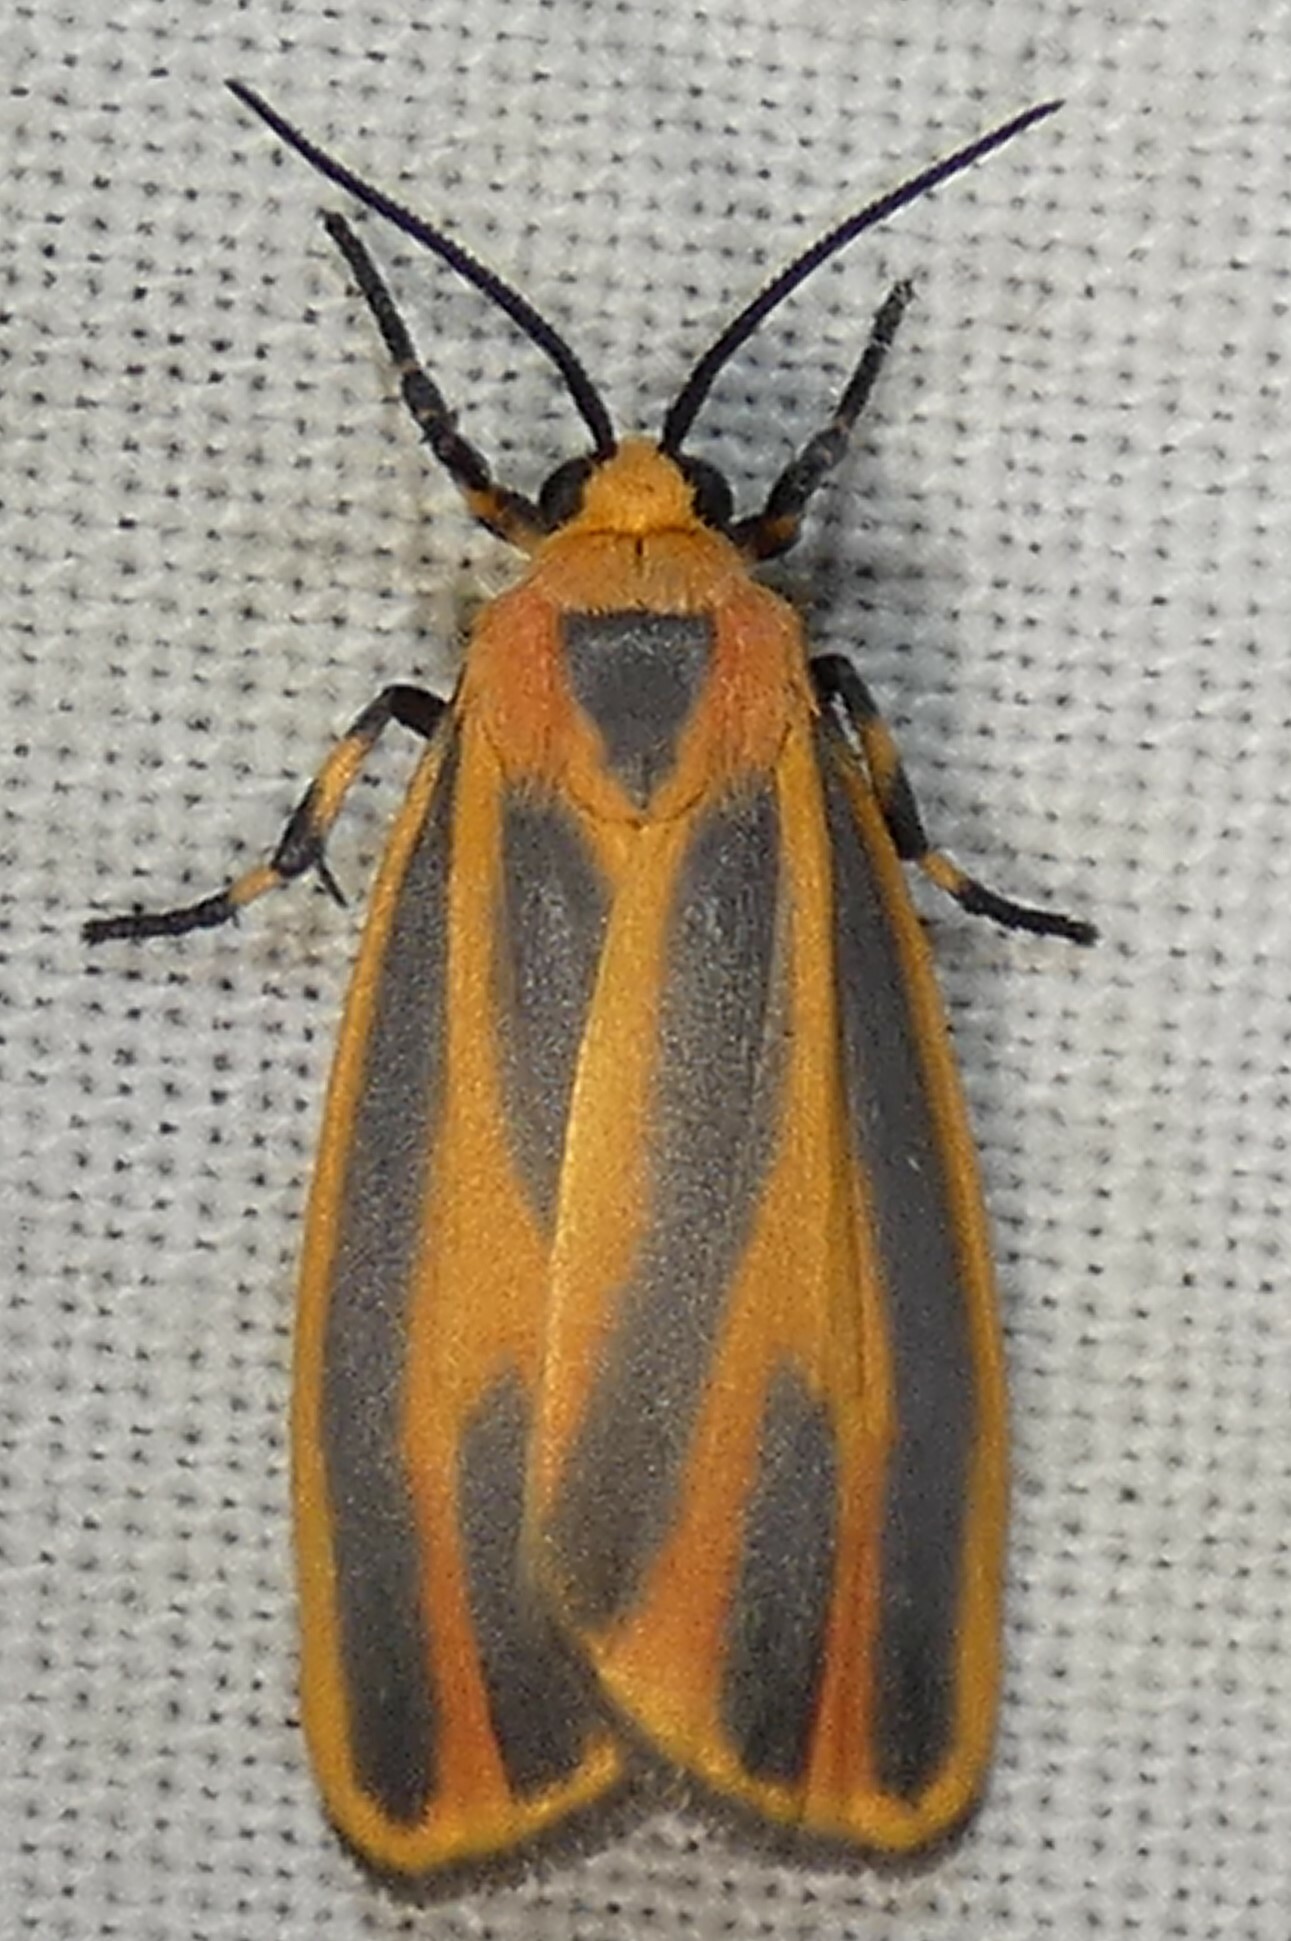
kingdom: Animalia
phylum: Arthropoda
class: Insecta
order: Lepidoptera
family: Erebidae
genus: Hypoprepia
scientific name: Hypoprepia fucosa
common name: Painted lichen moth
